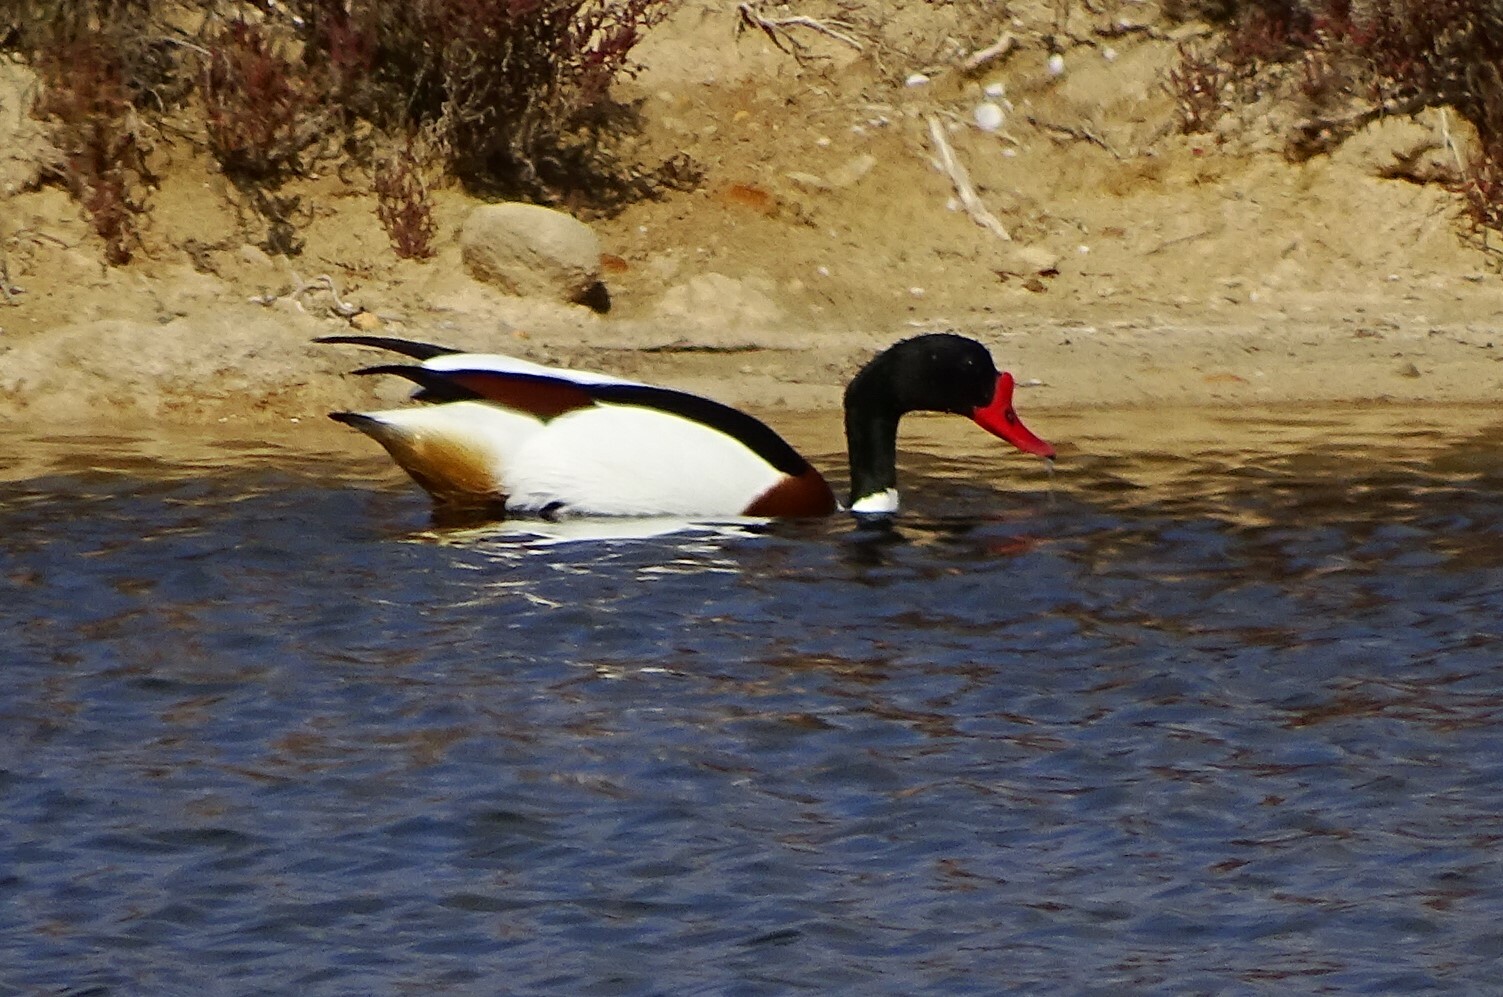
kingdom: Animalia
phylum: Chordata
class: Aves
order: Anseriformes
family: Anatidae
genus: Tadorna
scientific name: Tadorna tadorna
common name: Common shelduck
